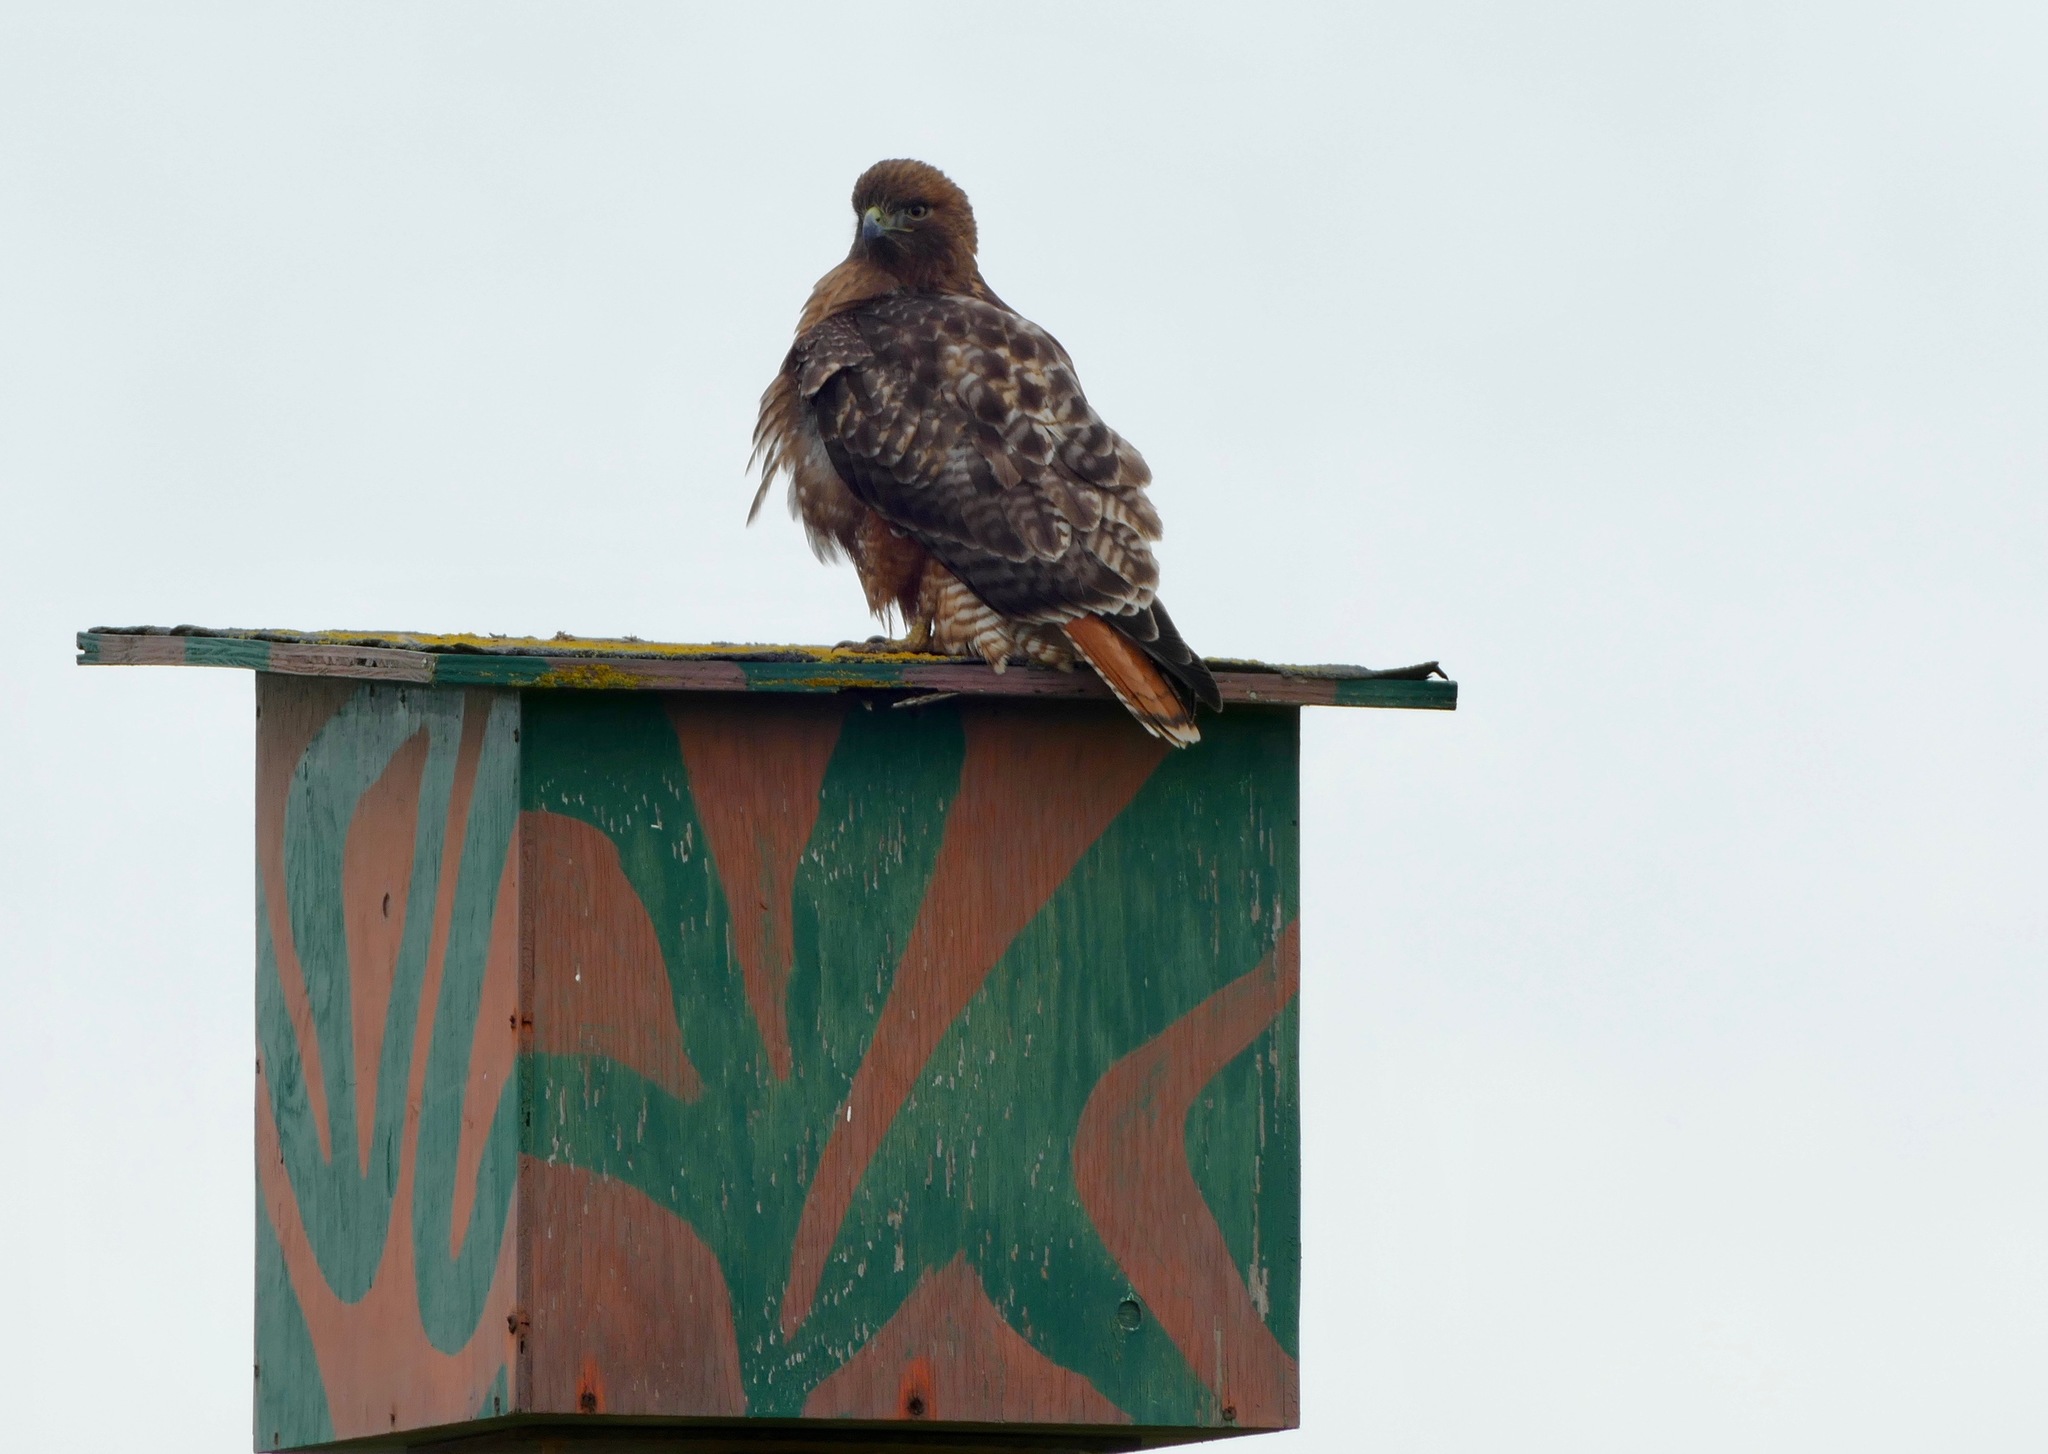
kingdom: Animalia
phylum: Chordata
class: Aves
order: Accipitriformes
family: Accipitridae
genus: Buteo
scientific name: Buteo jamaicensis
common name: Red-tailed hawk
